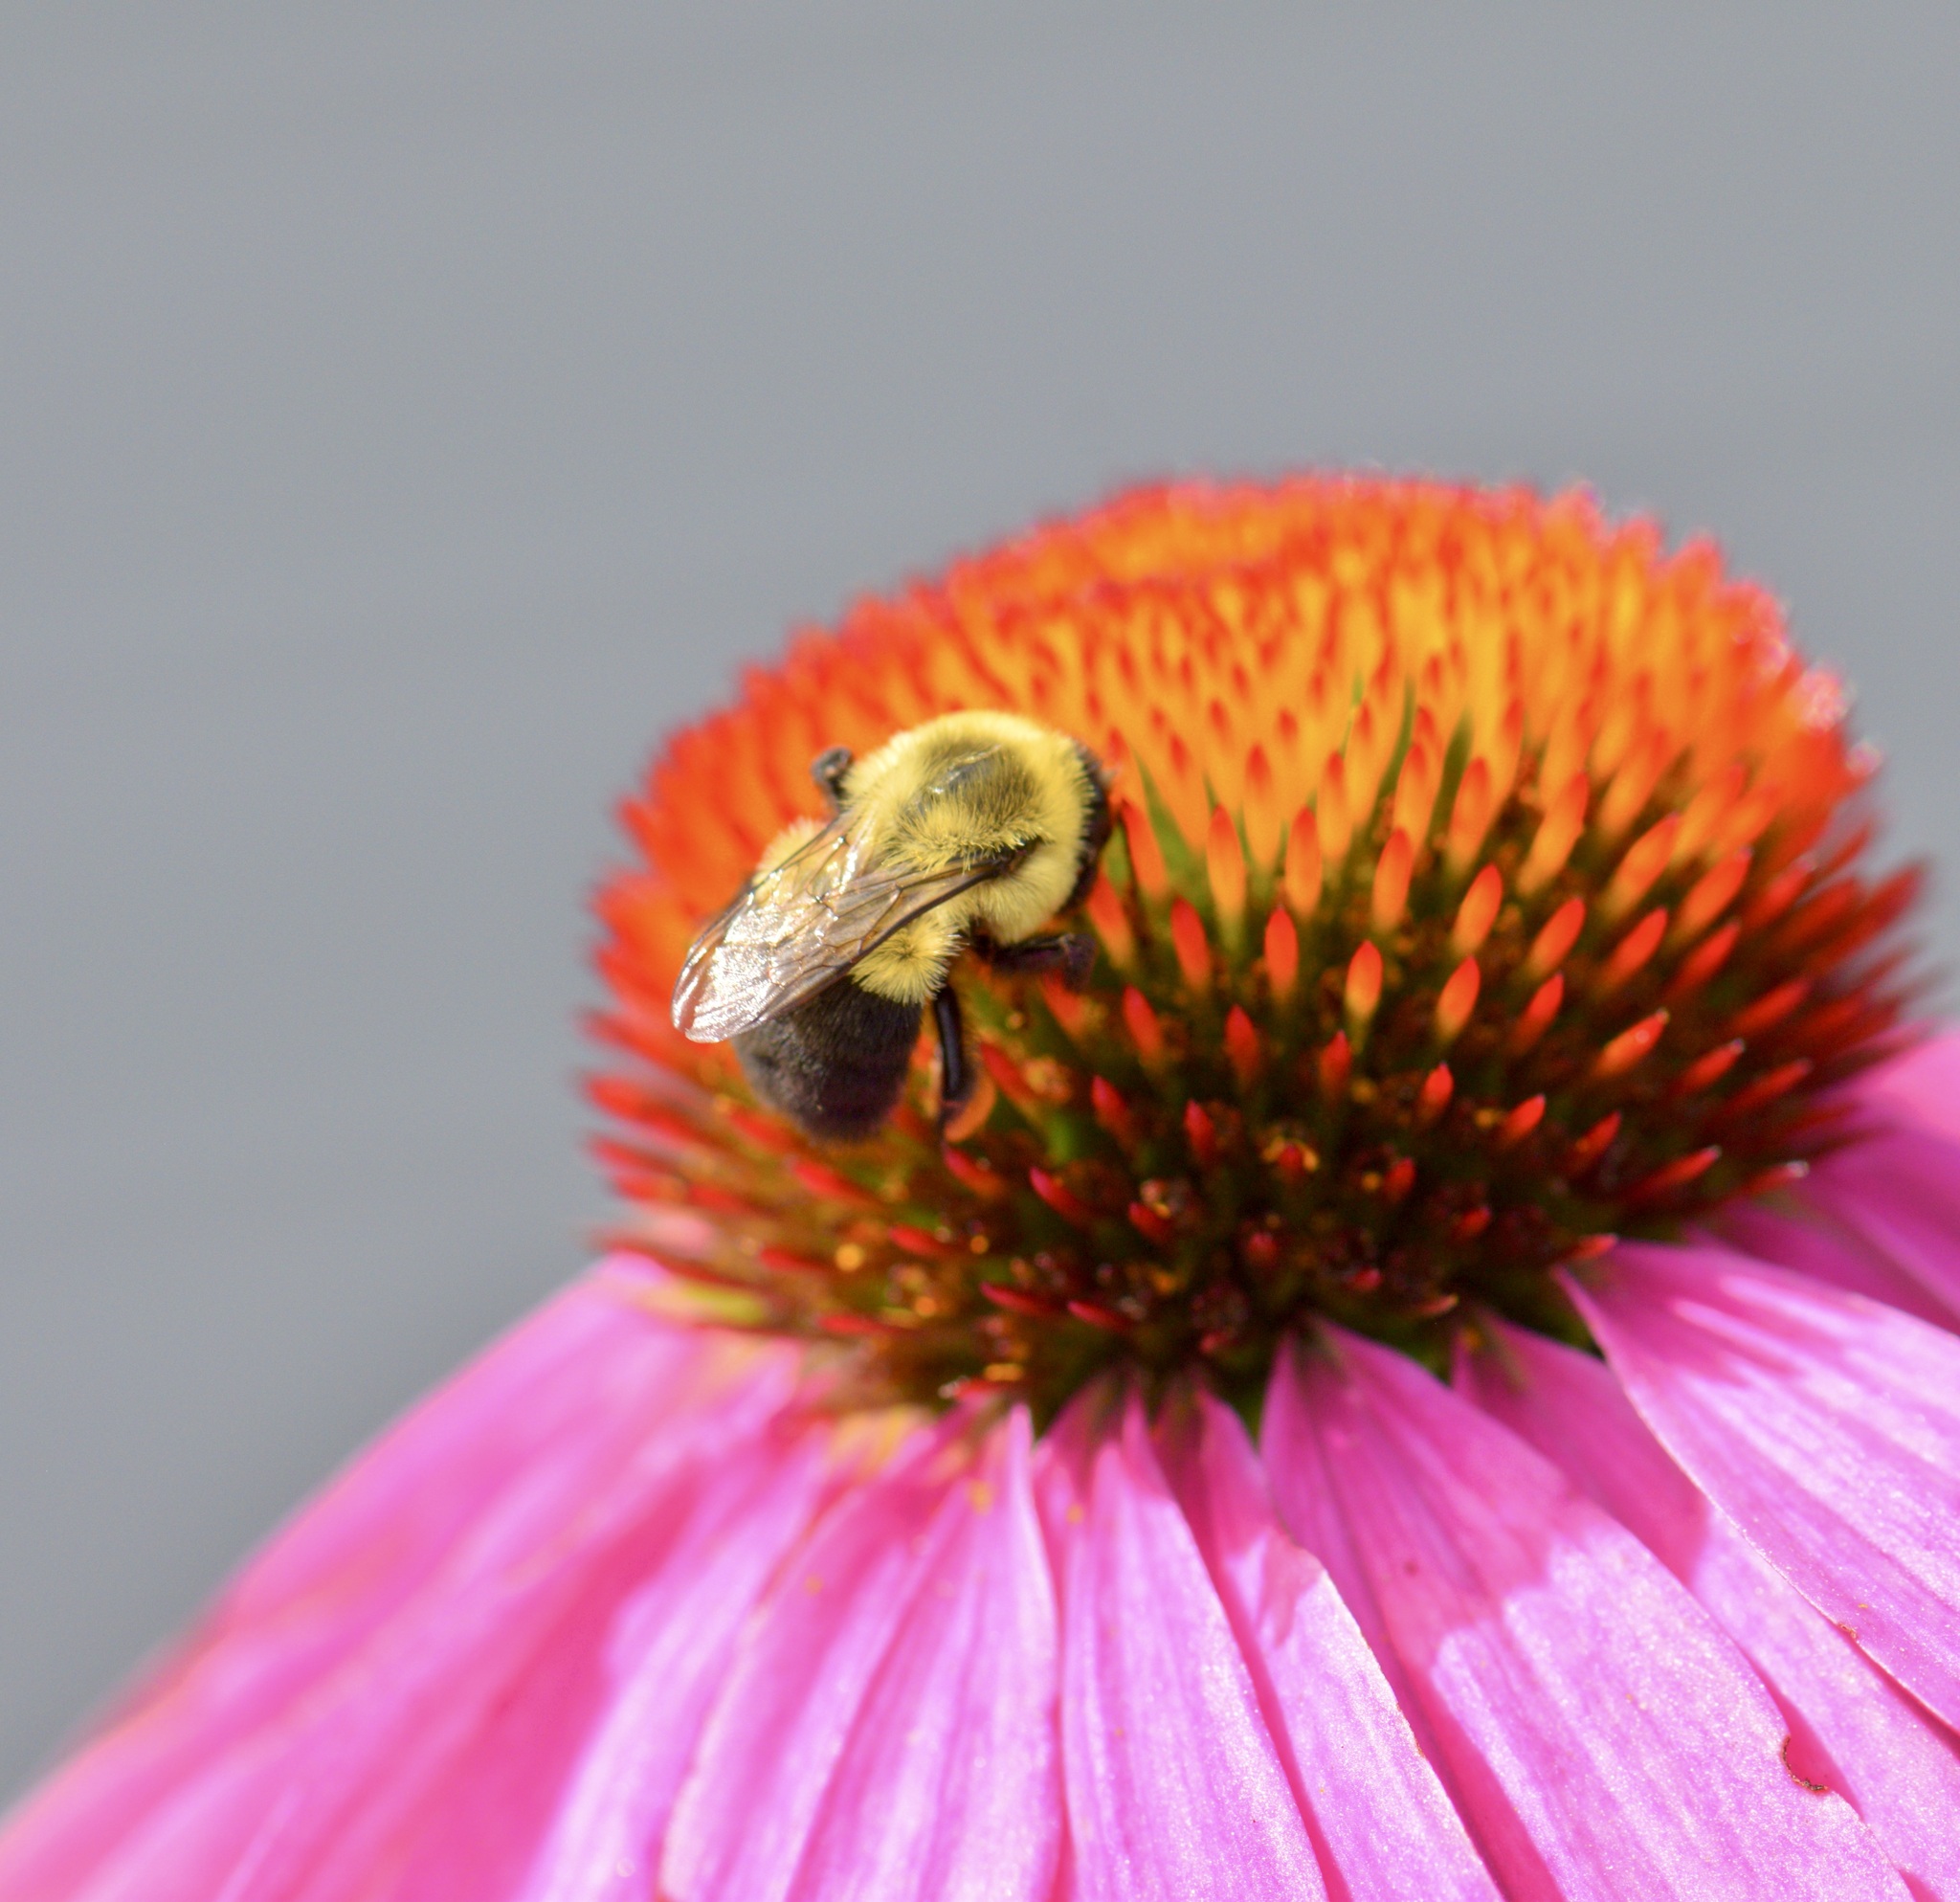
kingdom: Animalia
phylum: Arthropoda
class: Insecta
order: Hymenoptera
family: Apidae
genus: Bombus
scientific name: Bombus impatiens
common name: Common eastern bumble bee
